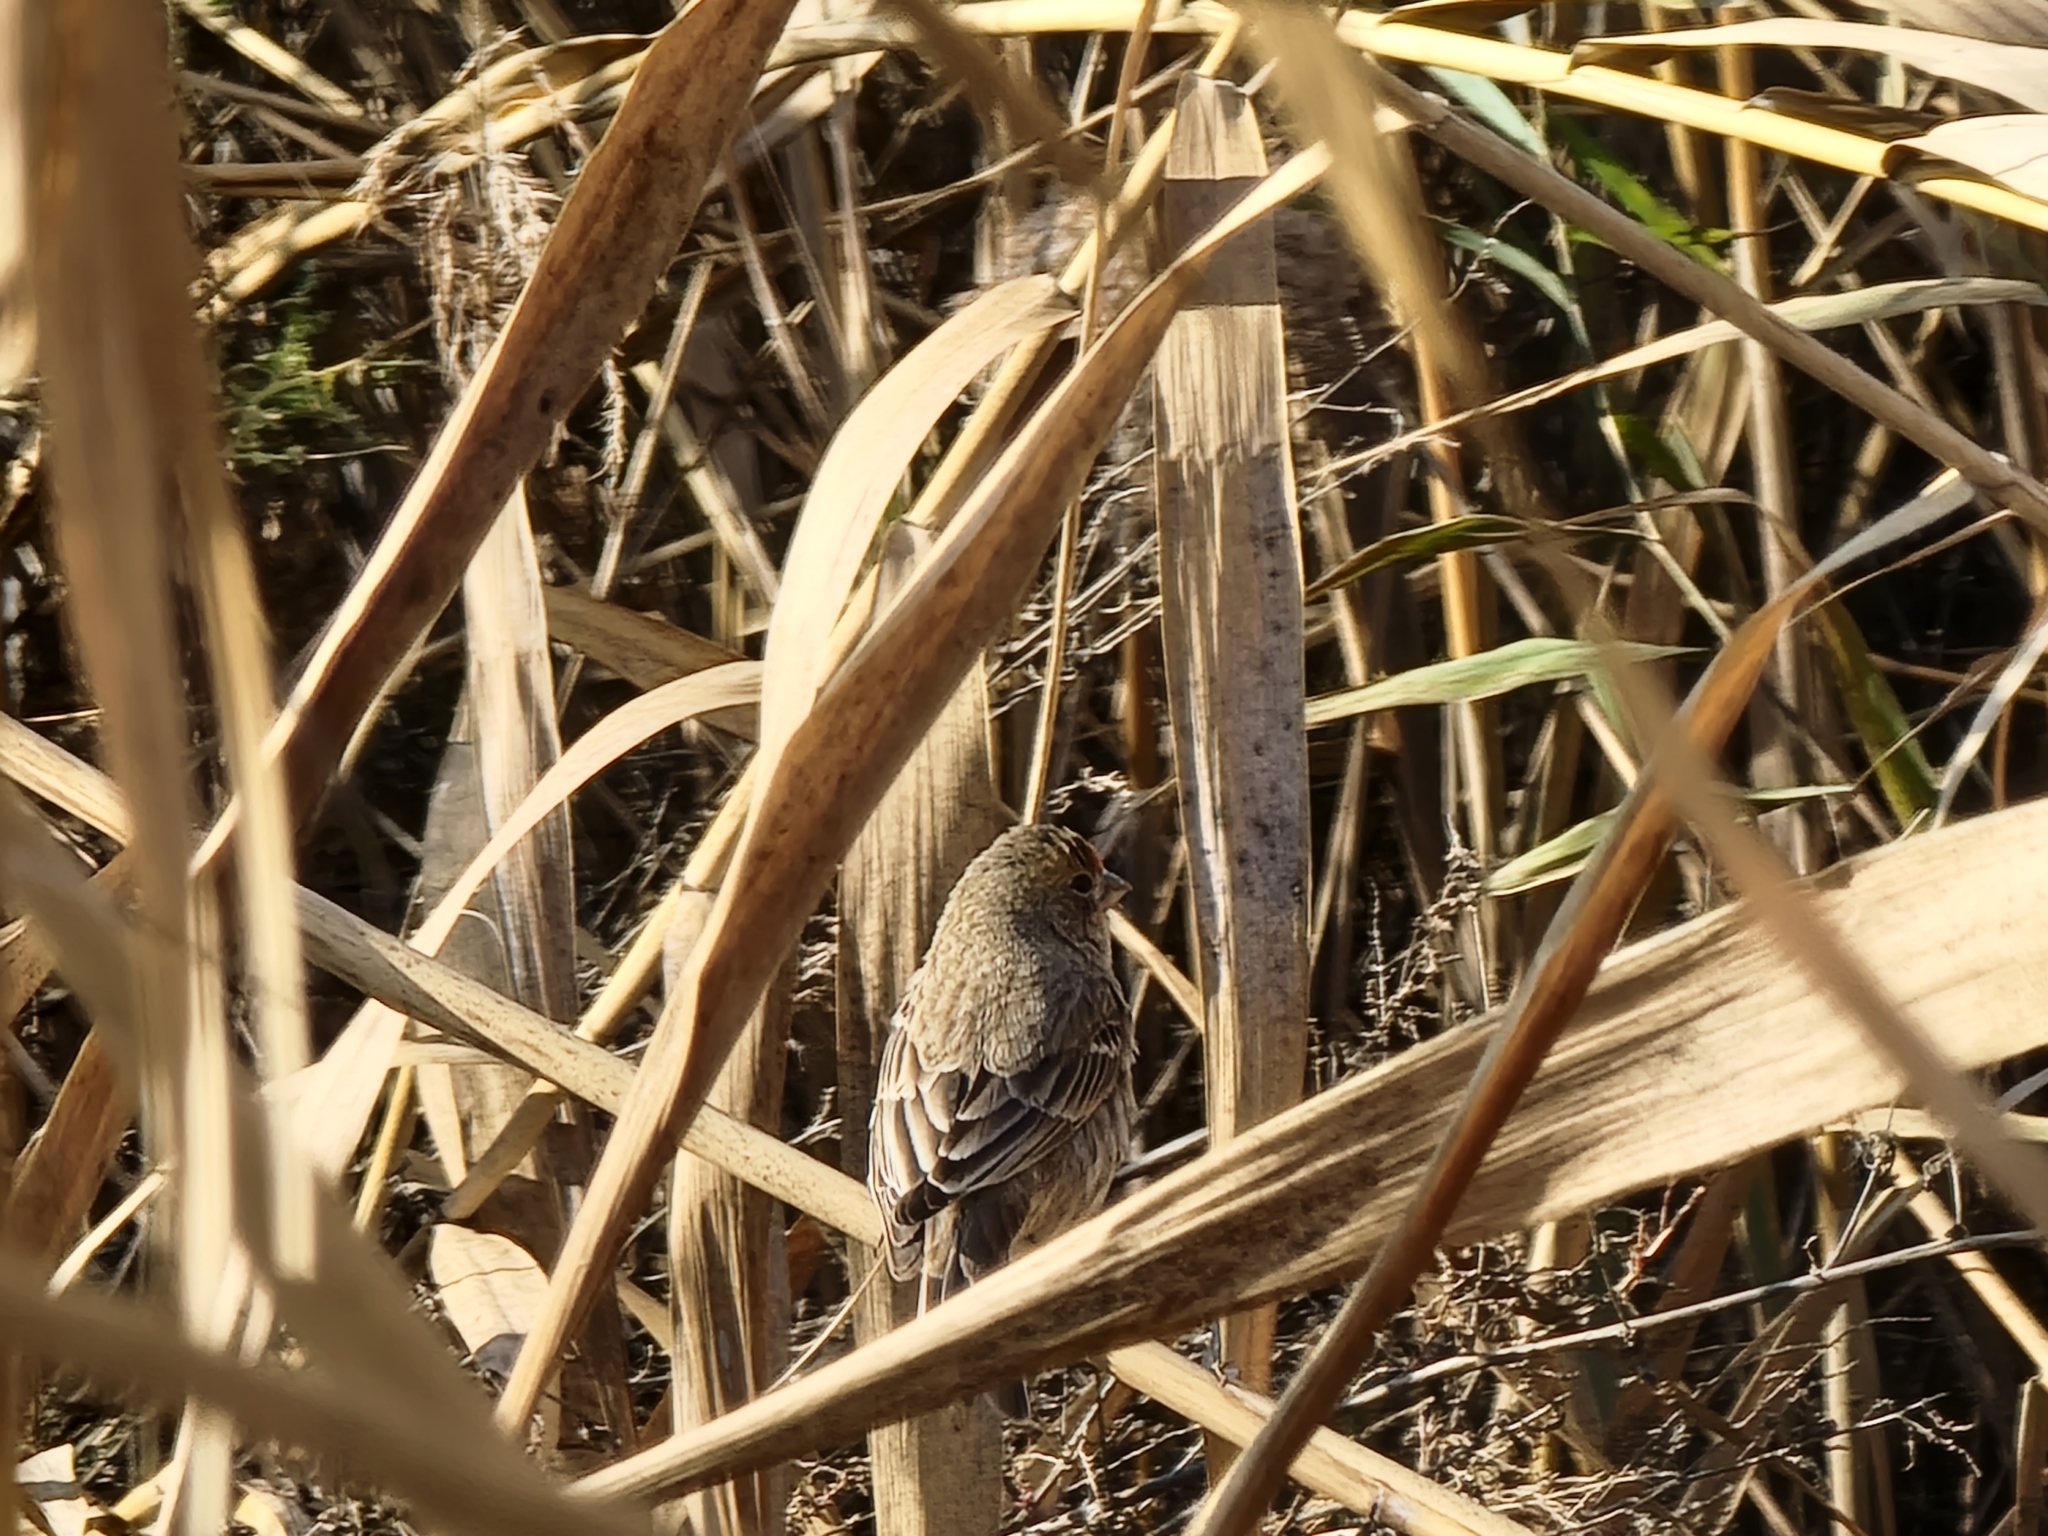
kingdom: Animalia
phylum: Chordata
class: Aves
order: Passeriformes
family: Fringillidae
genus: Haemorhous
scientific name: Haemorhous mexicanus
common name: House finch
